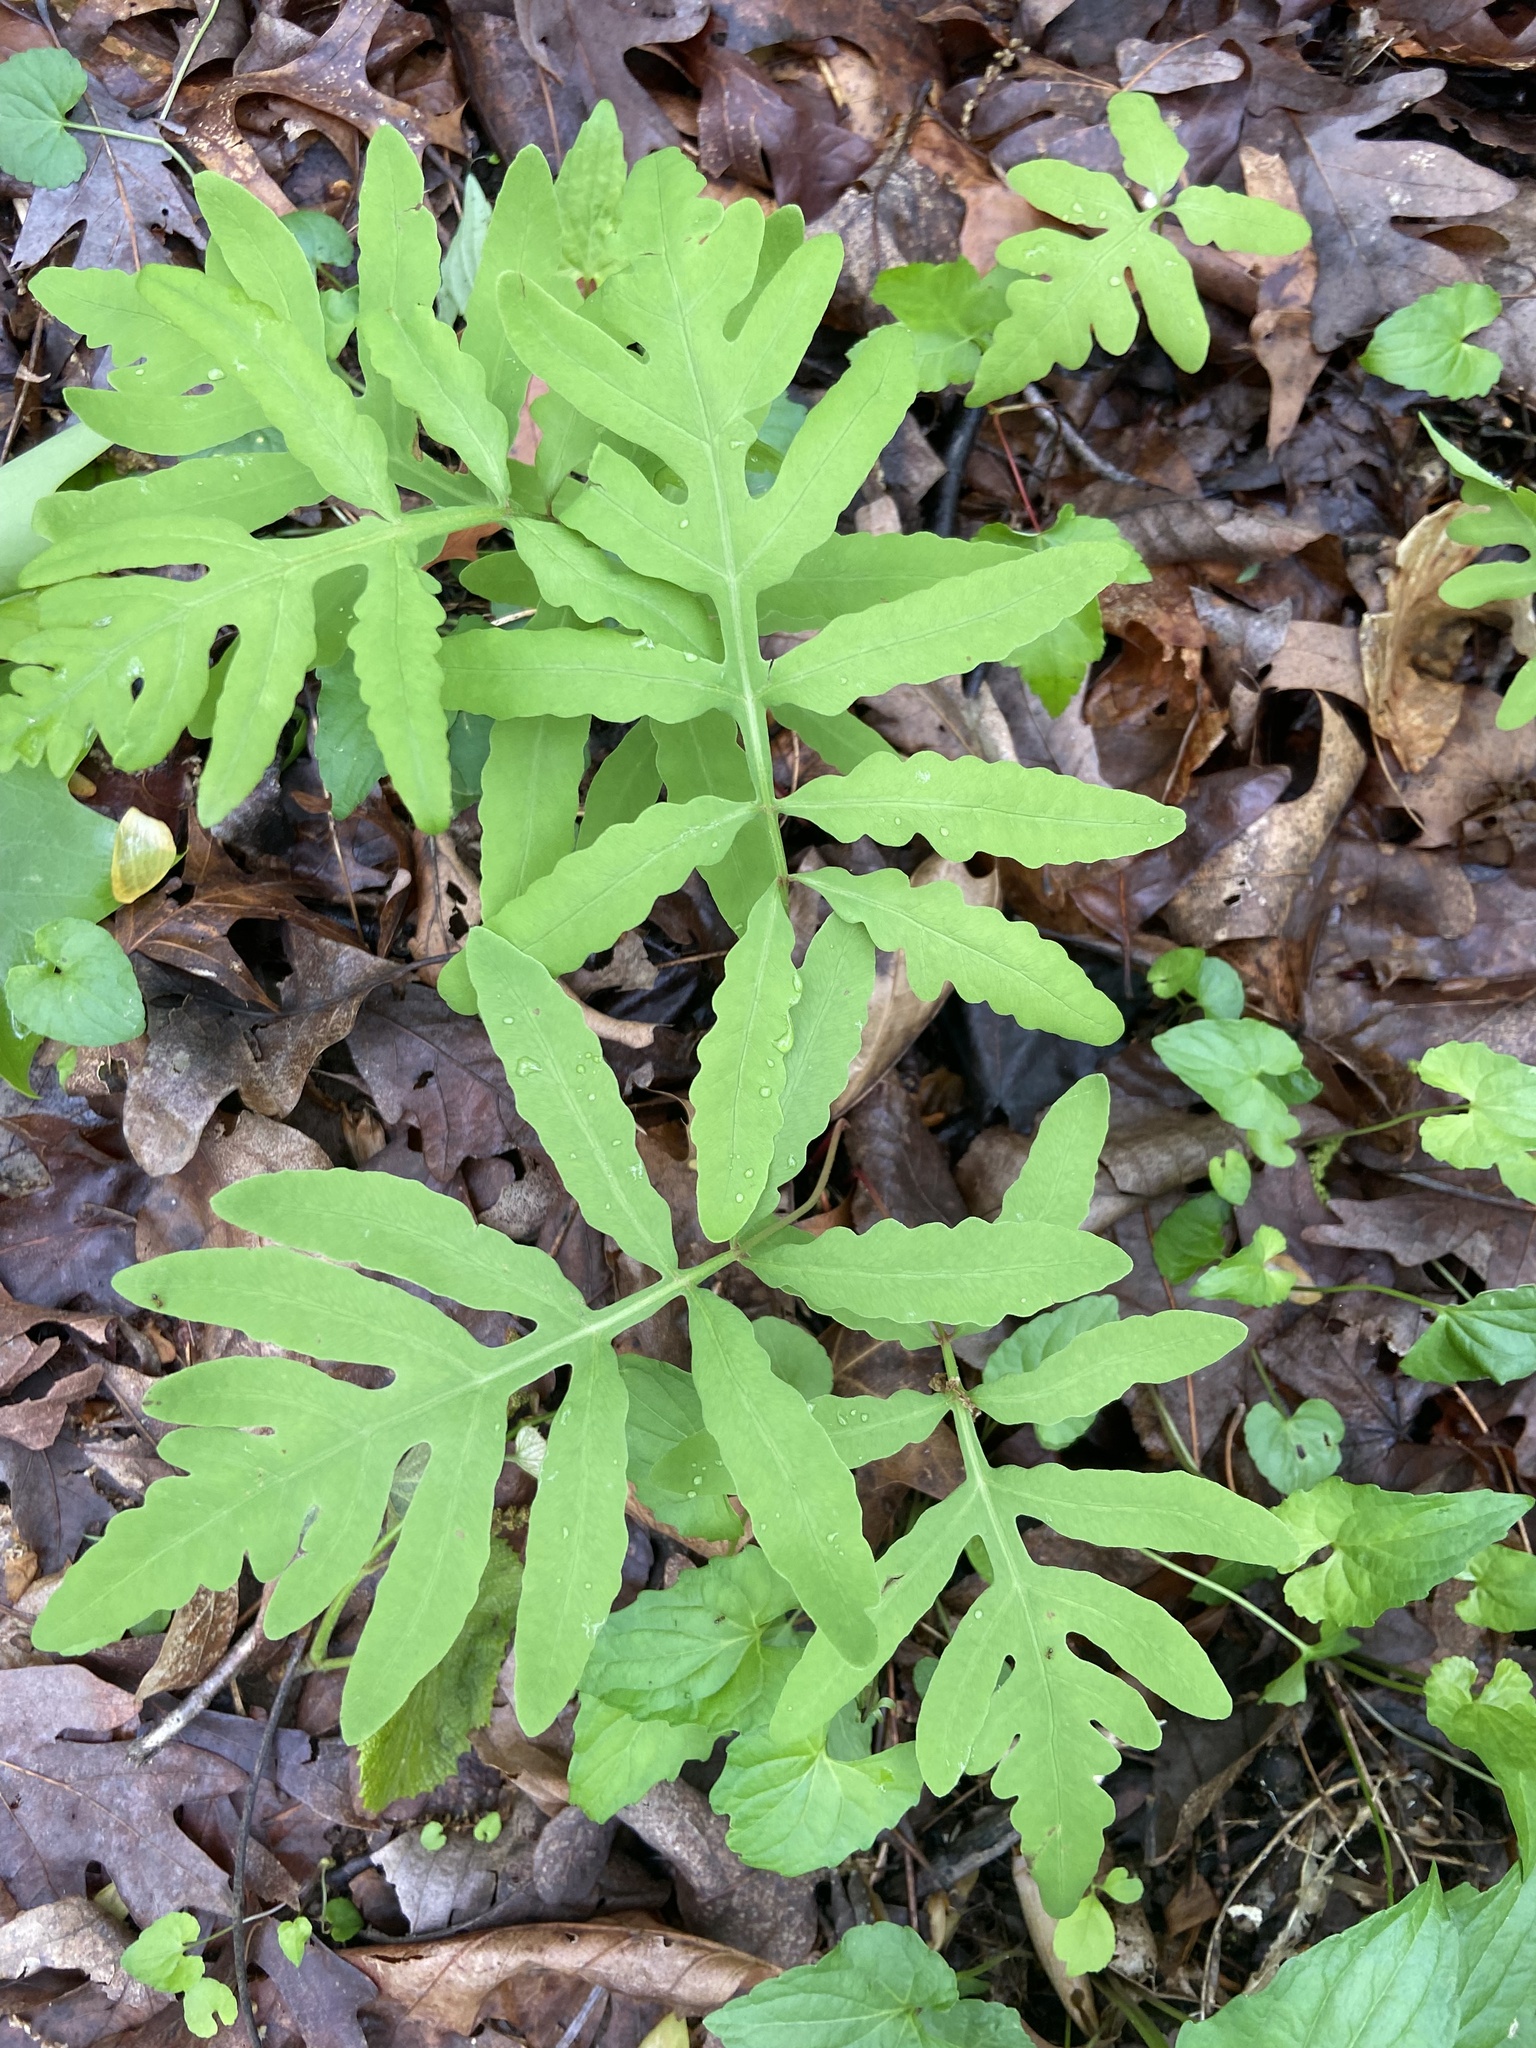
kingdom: Plantae
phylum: Tracheophyta
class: Polypodiopsida
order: Polypodiales
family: Onocleaceae
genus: Onoclea
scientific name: Onoclea sensibilis
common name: Sensitive fern
